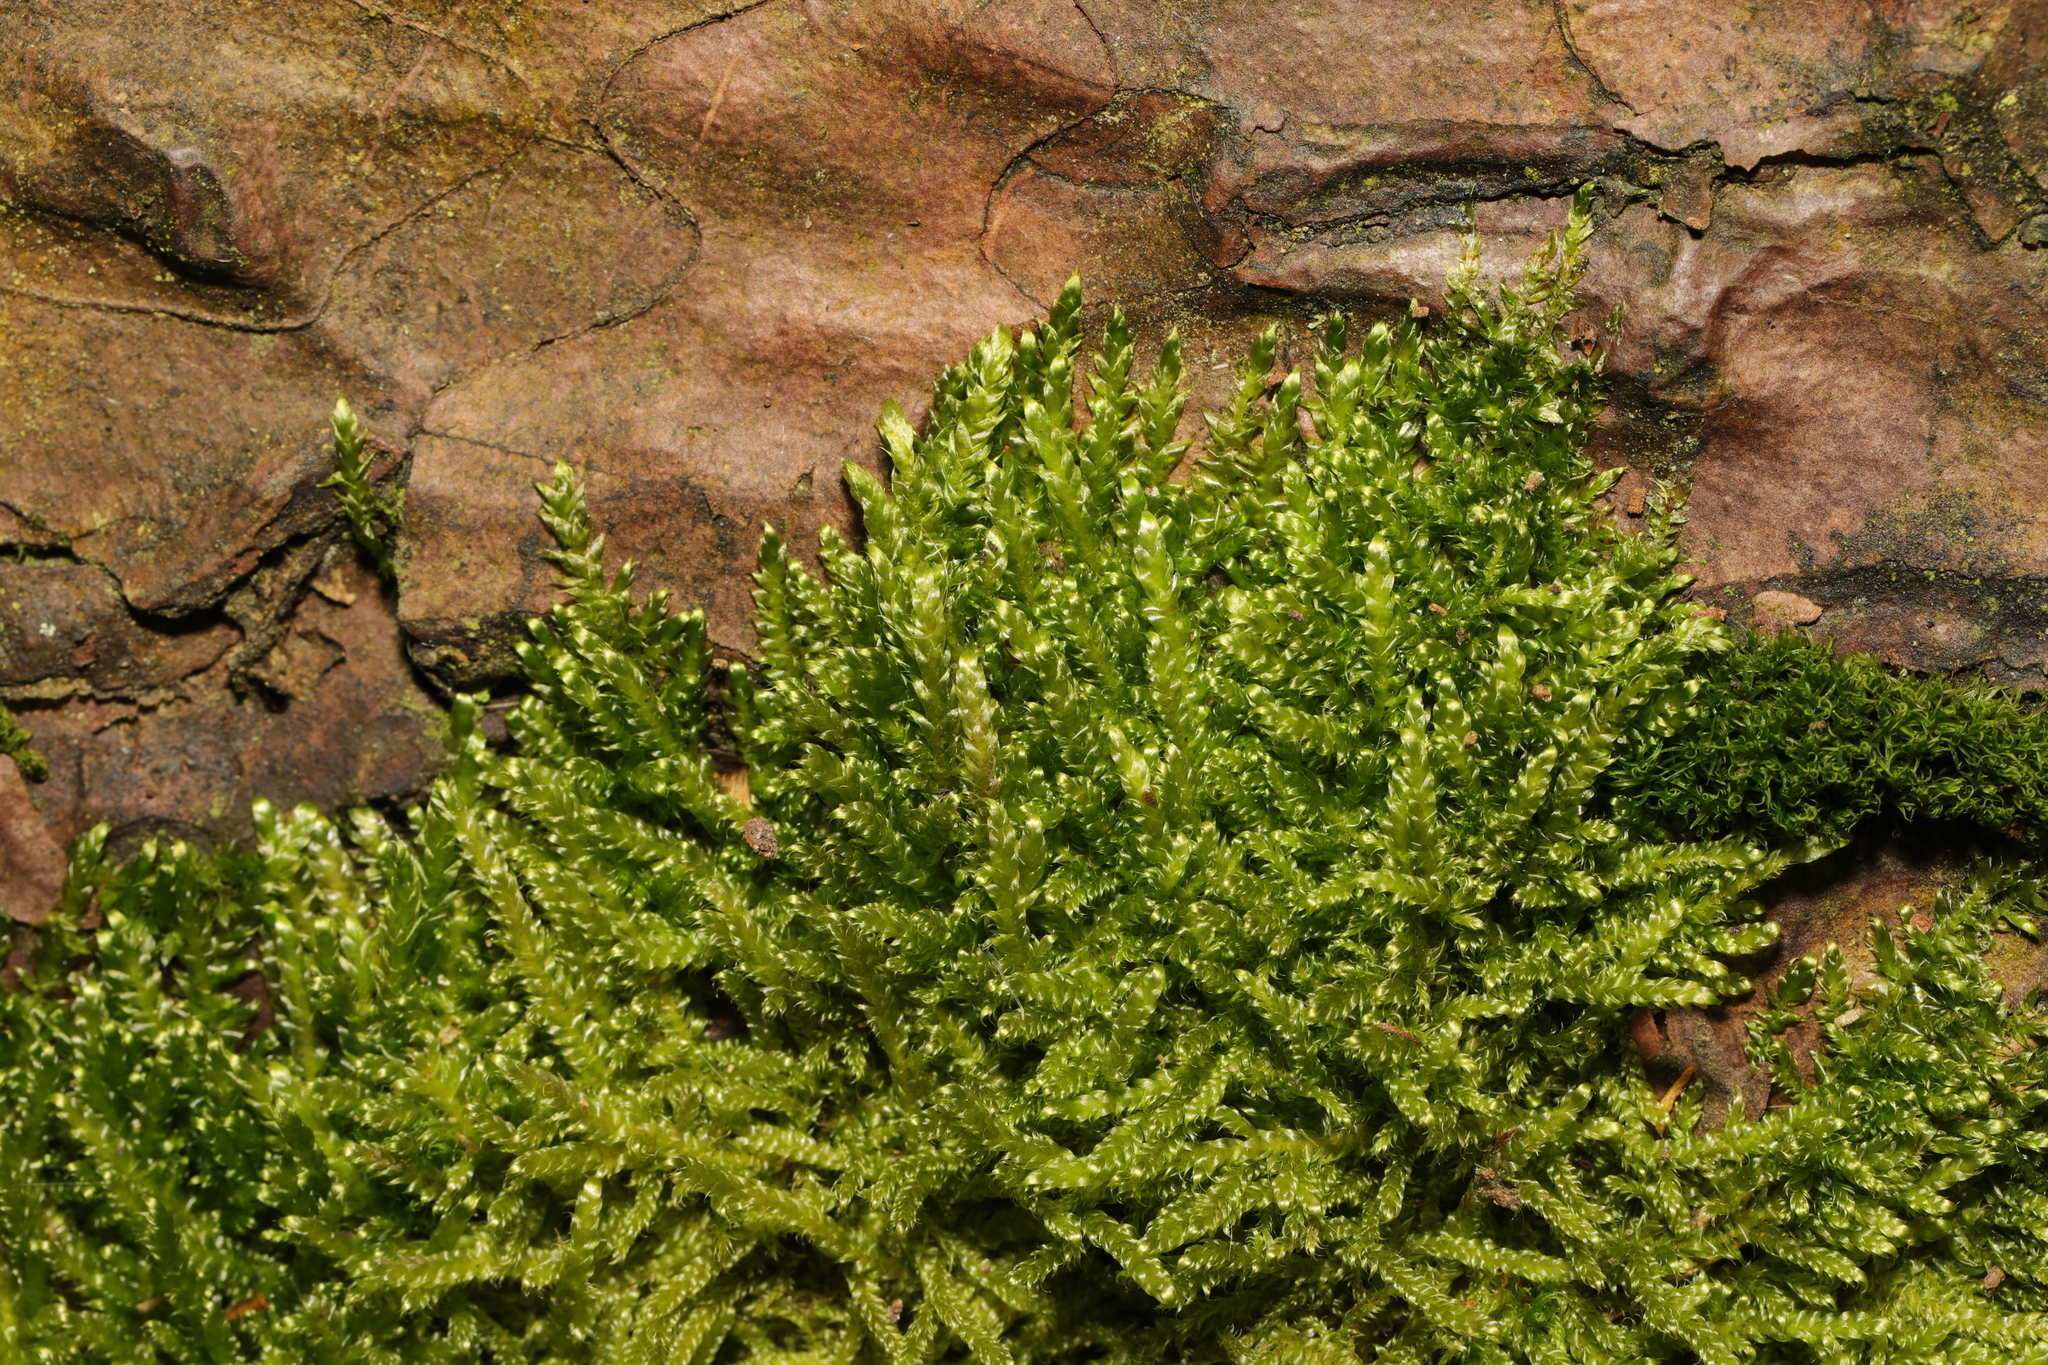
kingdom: Plantae
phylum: Bryophyta
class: Bryopsida
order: Hypnales
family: Hypnaceae
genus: Hypnum
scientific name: Hypnum cupressiforme
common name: Cypress-leaved plait-moss
